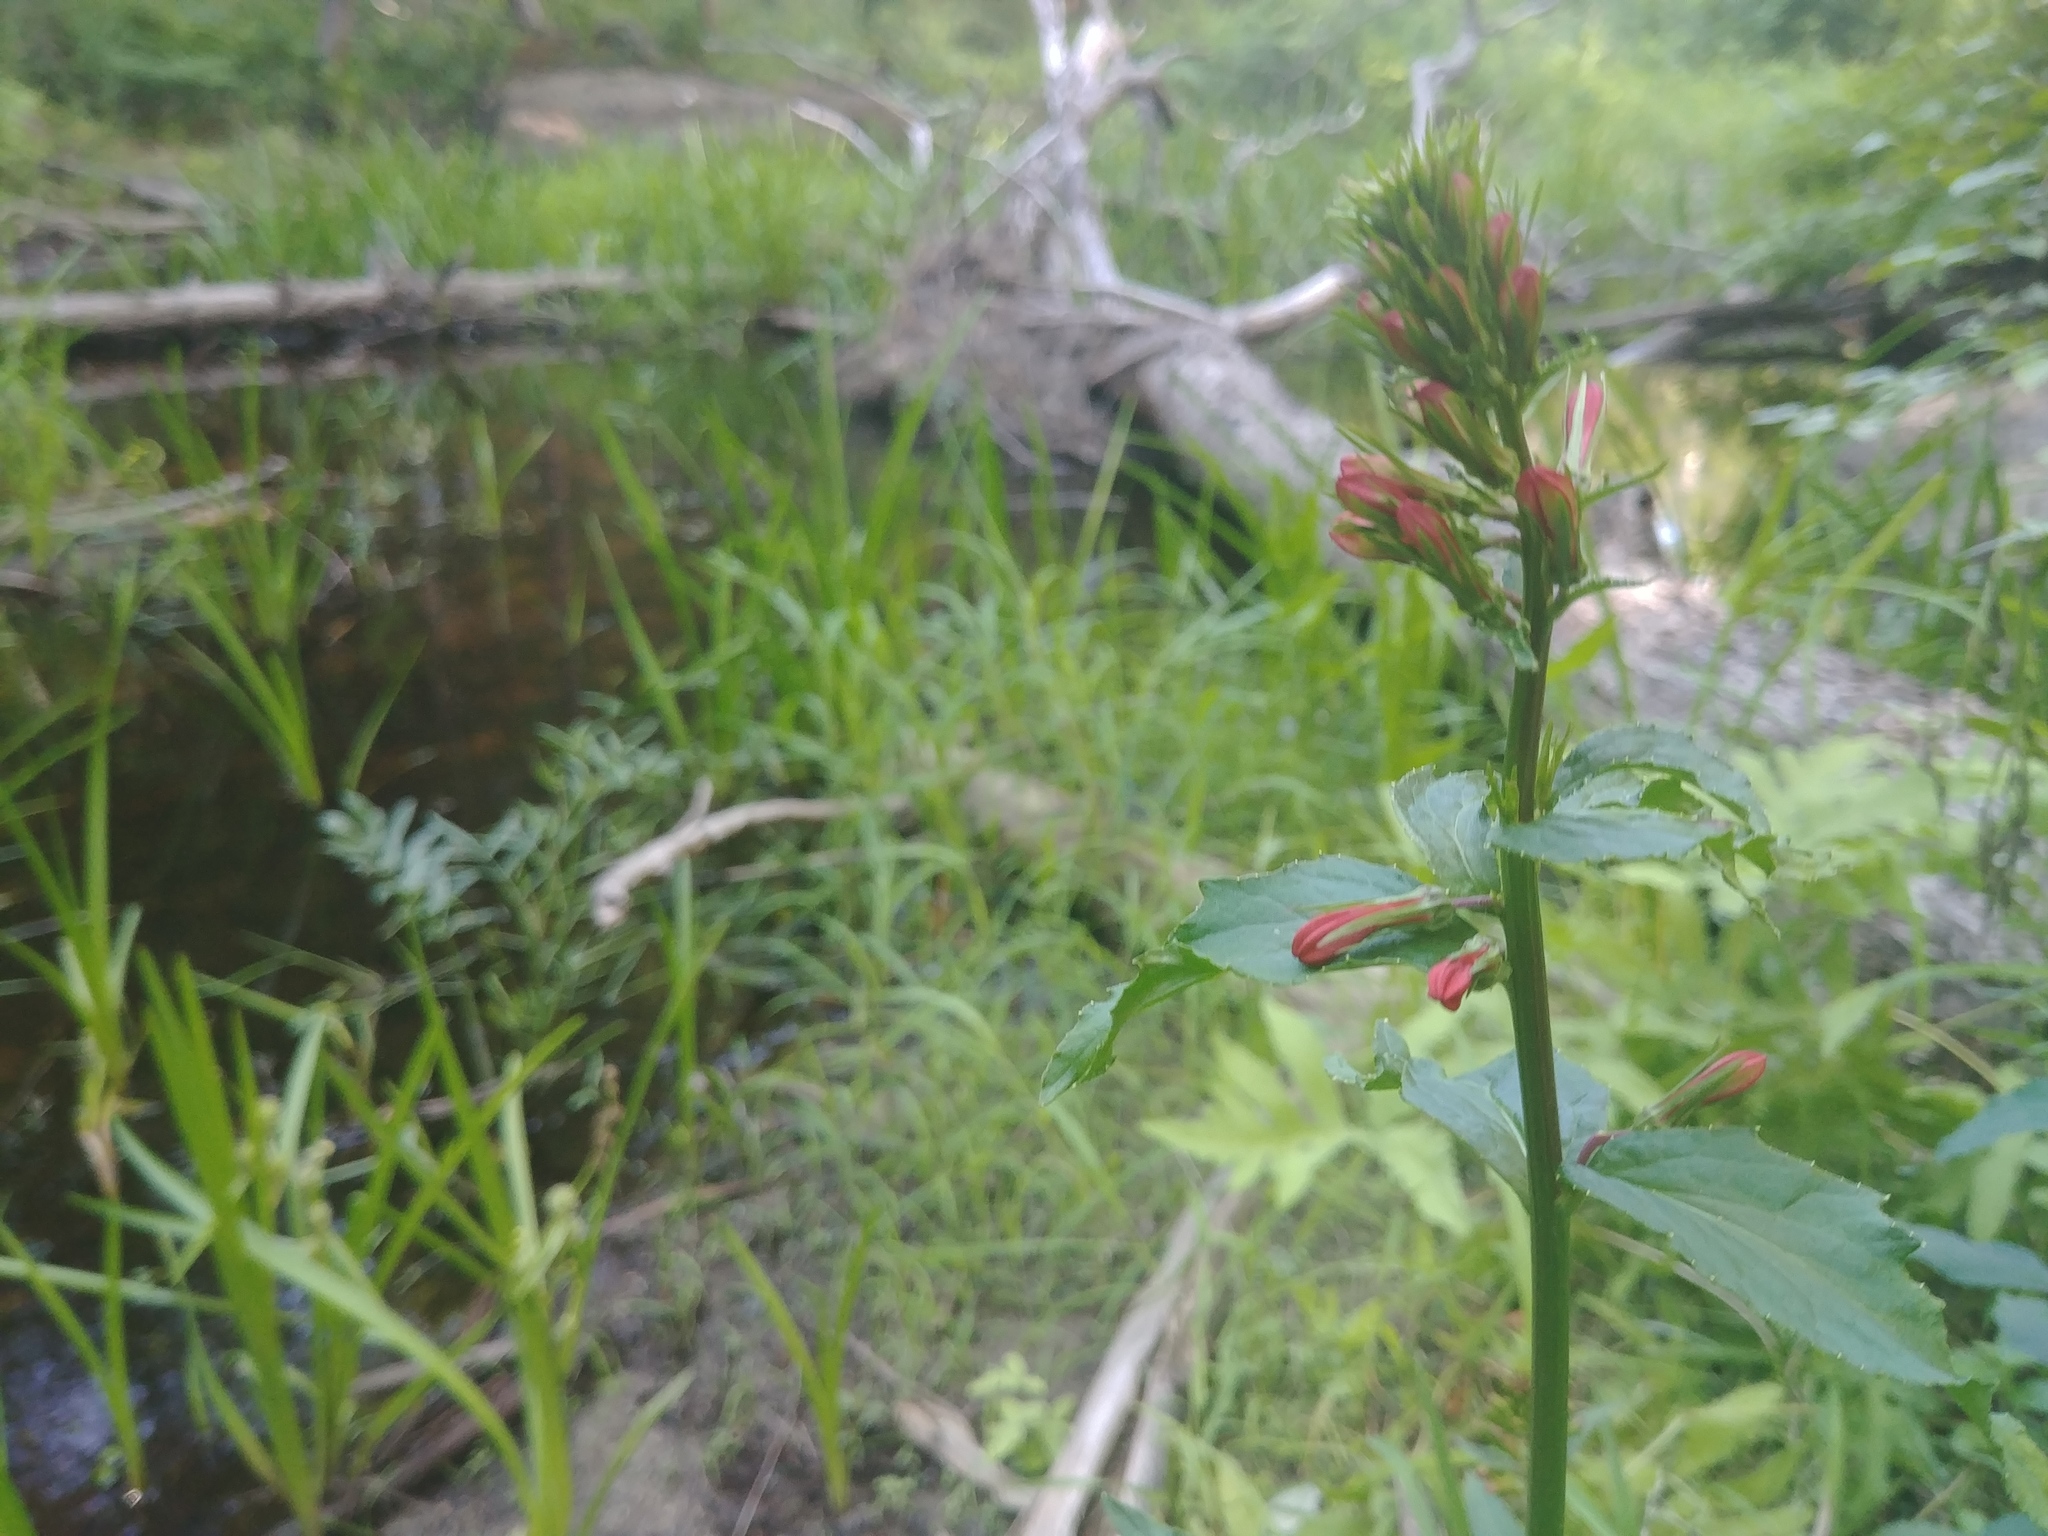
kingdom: Plantae
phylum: Tracheophyta
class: Magnoliopsida
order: Asterales
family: Campanulaceae
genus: Lobelia
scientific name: Lobelia cardinalis
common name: Cardinal flower
